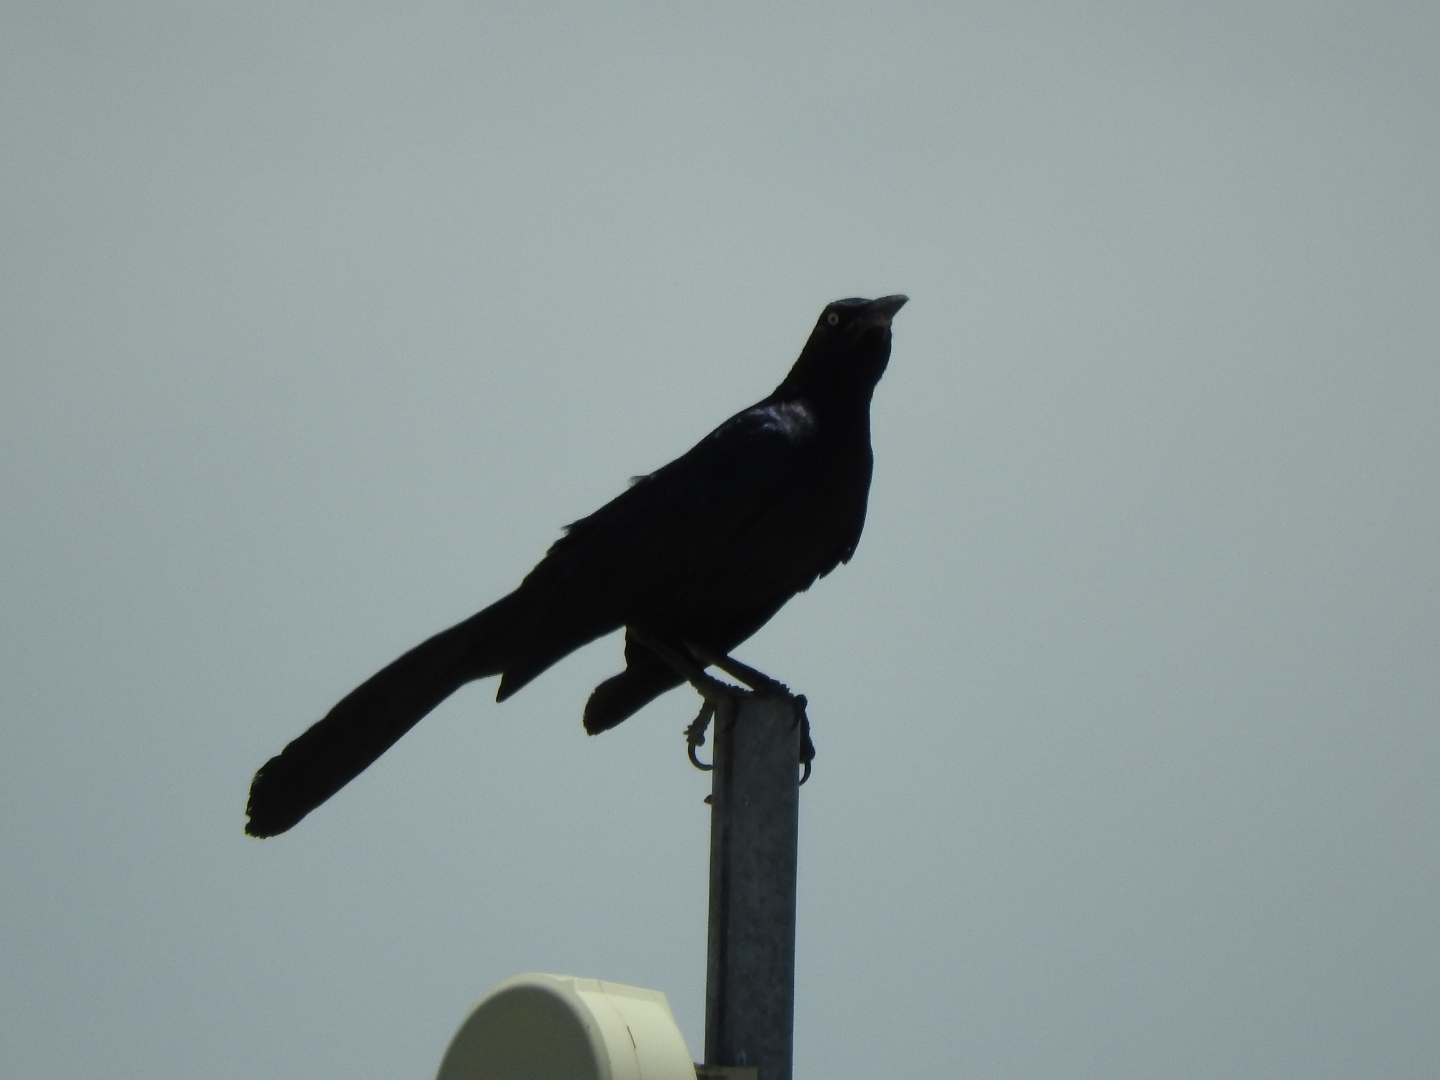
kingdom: Animalia
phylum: Chordata
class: Aves
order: Passeriformes
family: Icteridae
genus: Quiscalus
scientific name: Quiscalus mexicanus
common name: Great-tailed grackle
